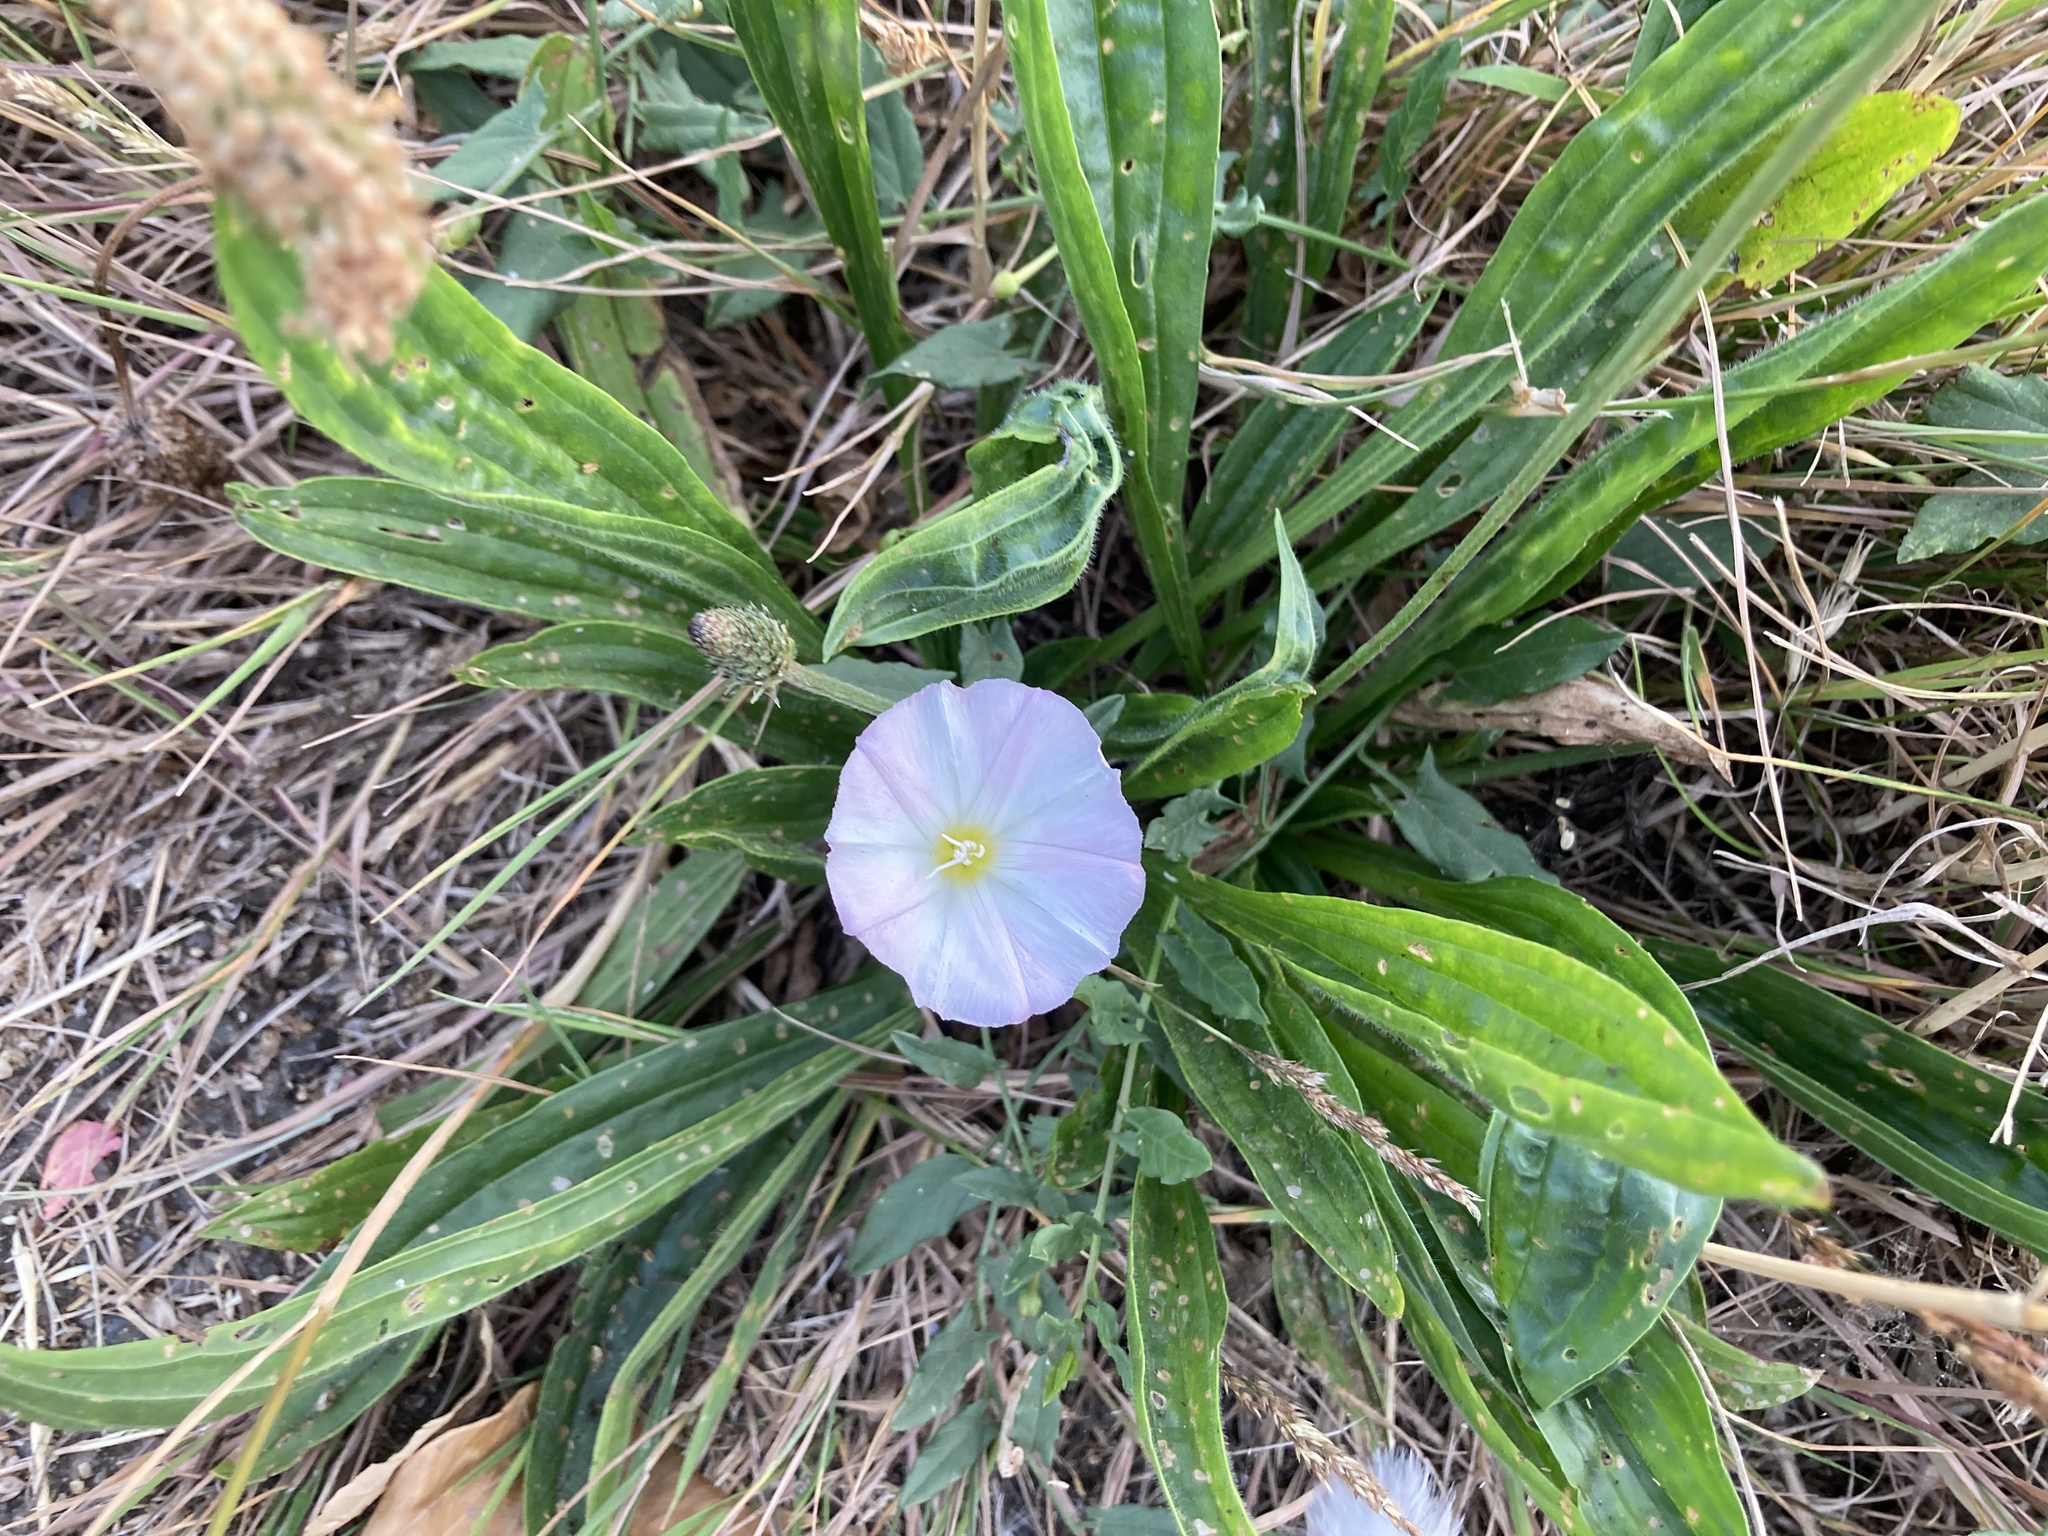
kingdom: Plantae
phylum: Tracheophyta
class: Magnoliopsida
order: Solanales
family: Convolvulaceae
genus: Convolvulus
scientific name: Convolvulus arvensis
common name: Field bindweed
